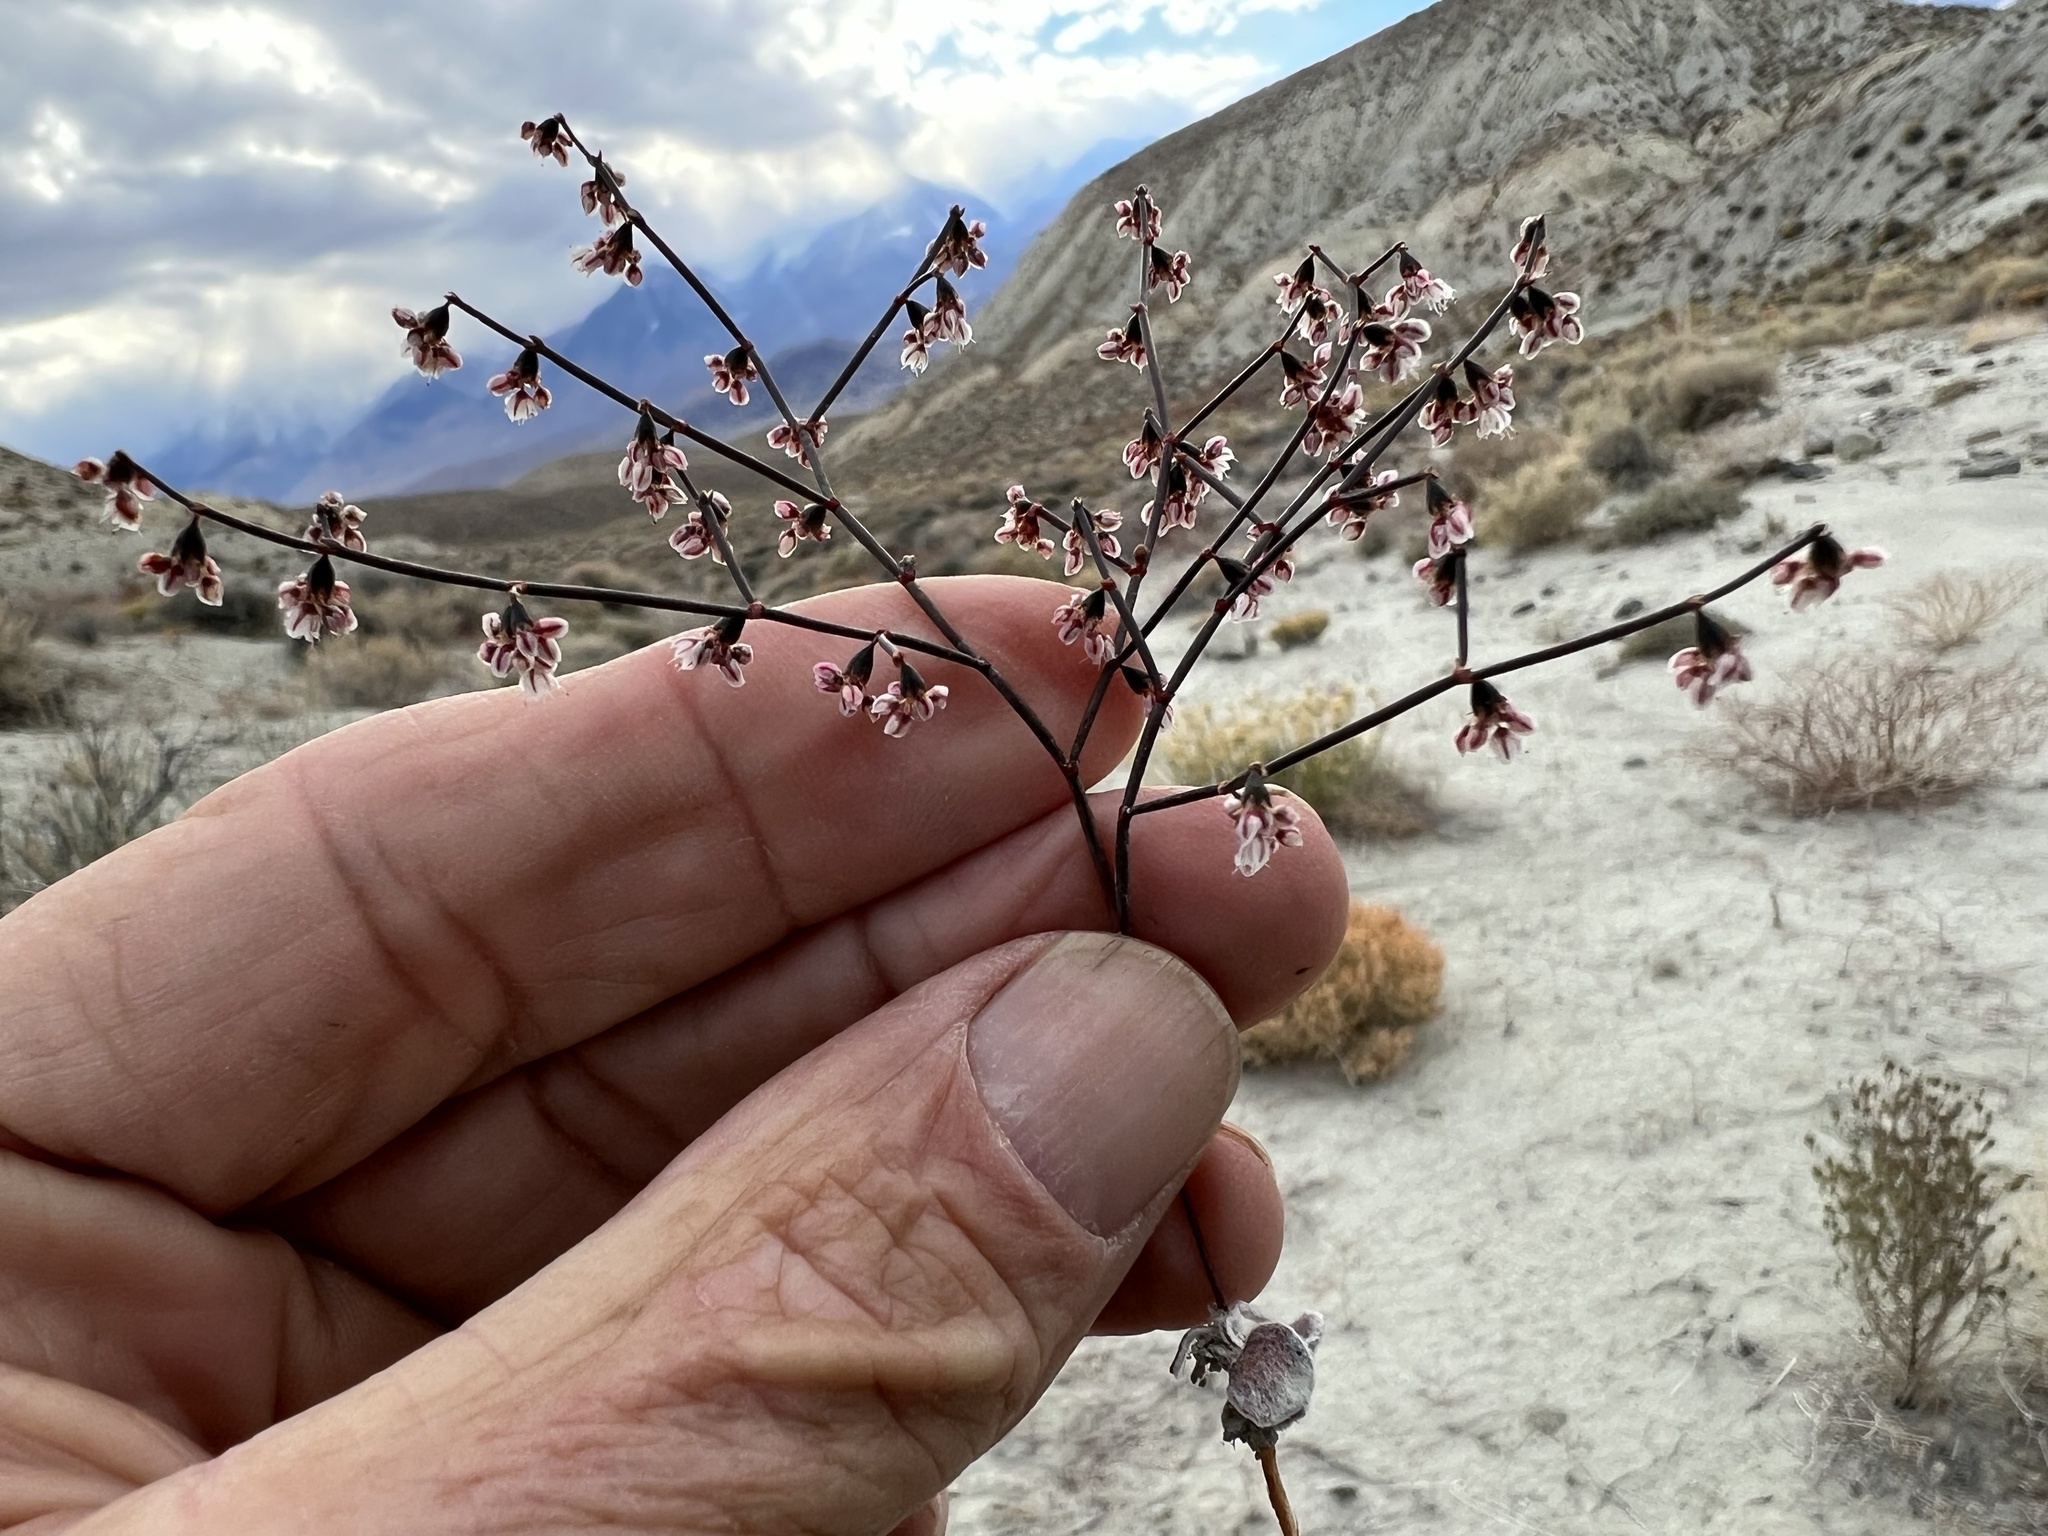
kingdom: Plantae
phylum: Tracheophyta
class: Magnoliopsida
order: Caryophyllales
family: Polygonaceae
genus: Eriogonum
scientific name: Eriogonum deflexum
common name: Skeleton-weed
